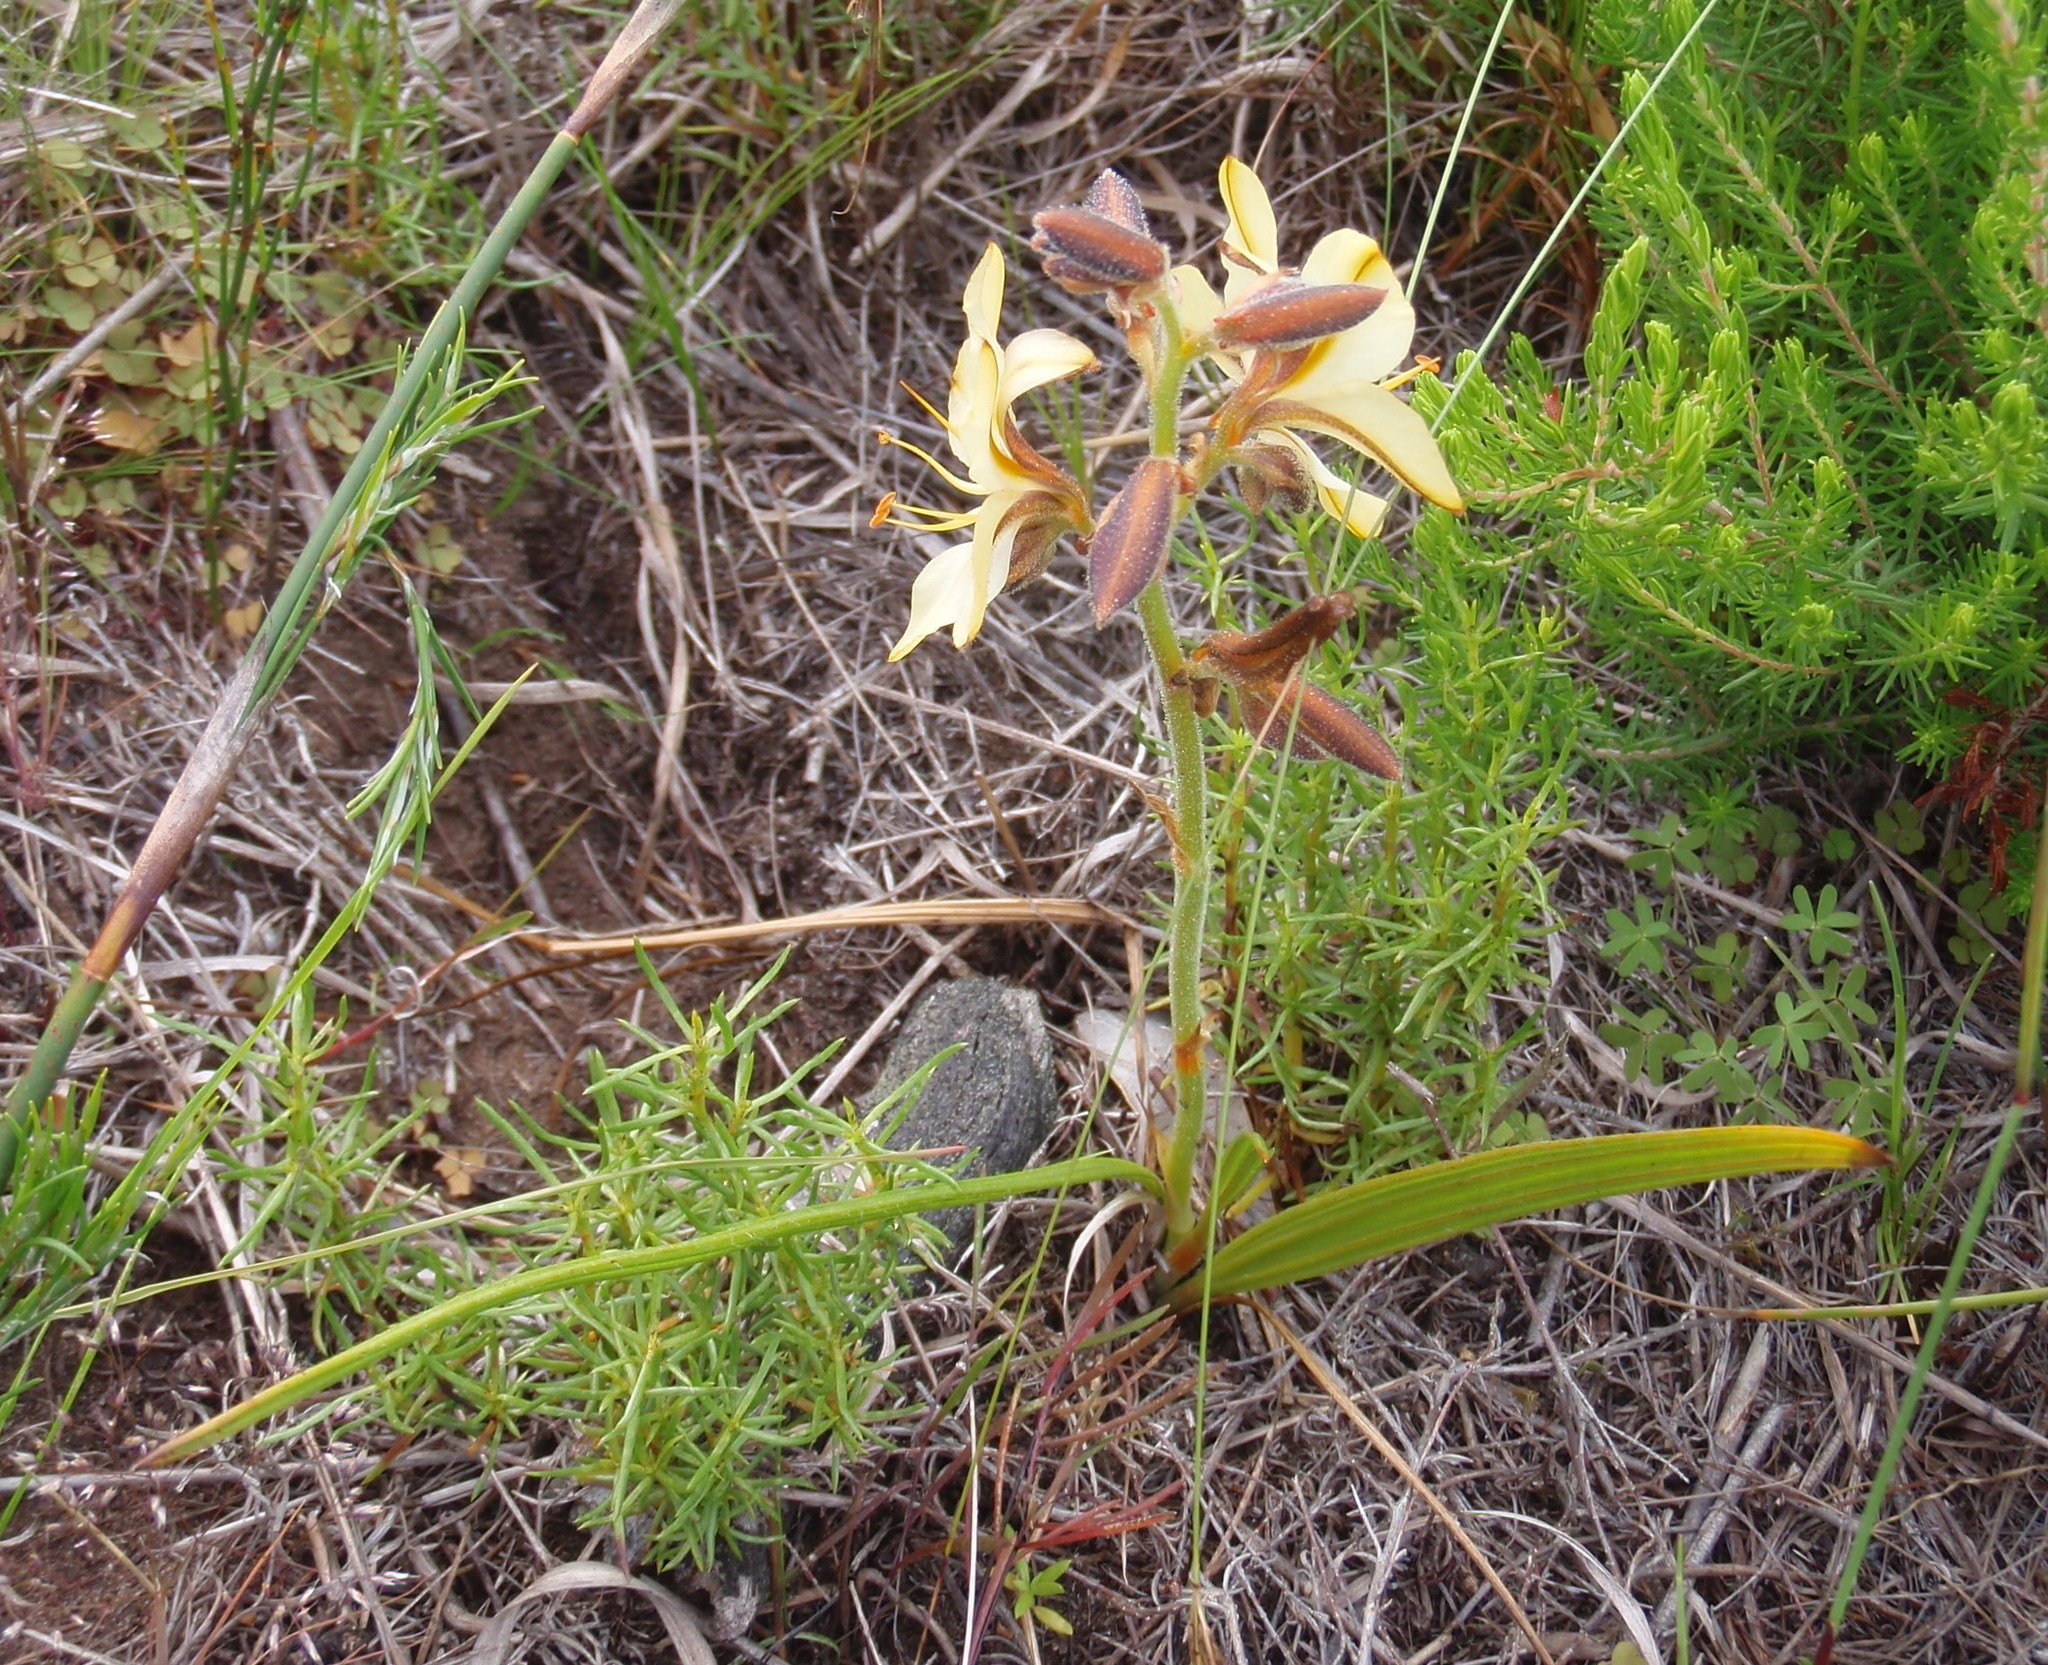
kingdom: Plantae
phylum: Tracheophyta
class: Liliopsida
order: Commelinales
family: Haemodoraceae
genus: Wachendorfia
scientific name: Wachendorfia paniculata
